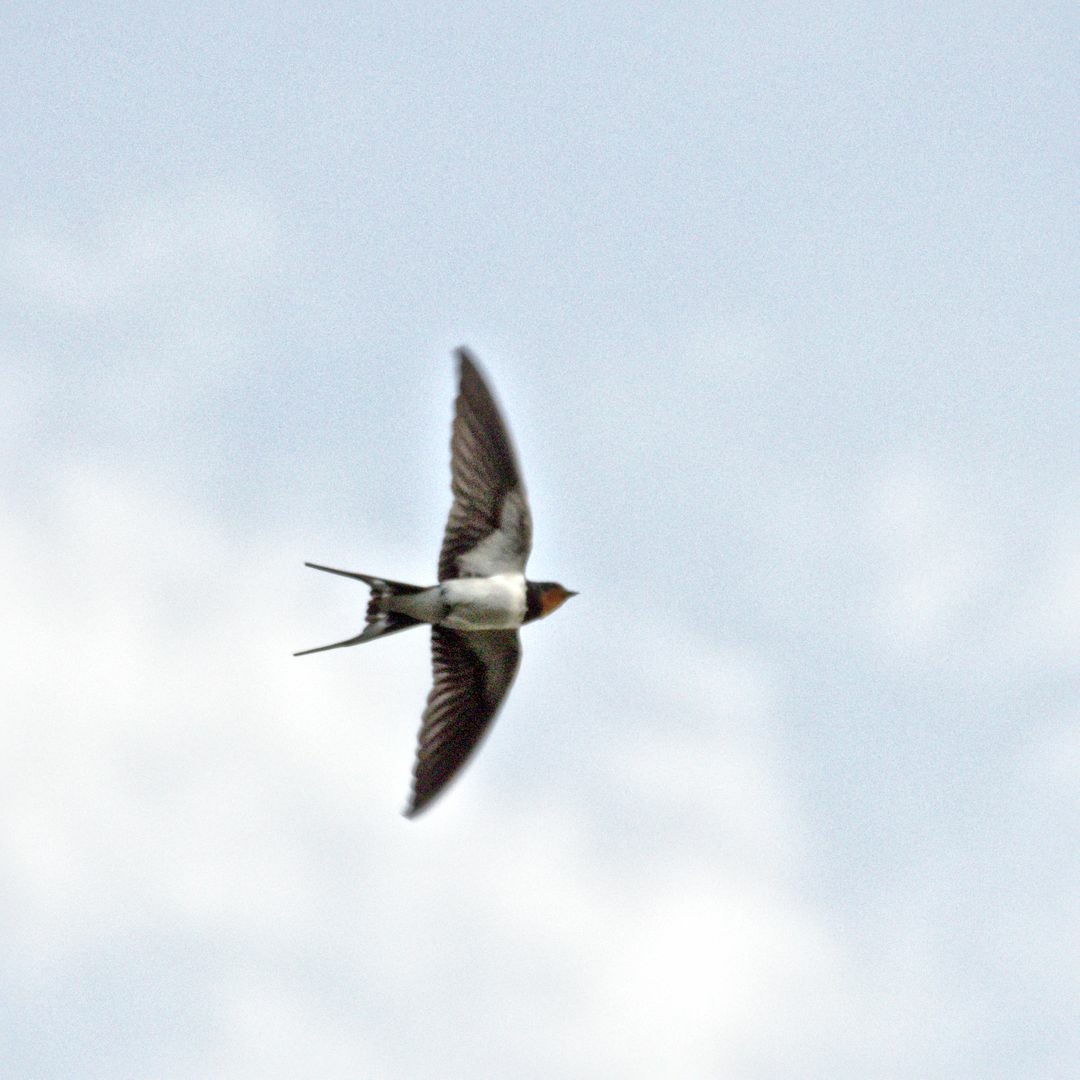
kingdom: Animalia
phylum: Chordata
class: Aves
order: Passeriformes
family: Hirundinidae
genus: Hirundo
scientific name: Hirundo rustica
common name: Barn swallow
